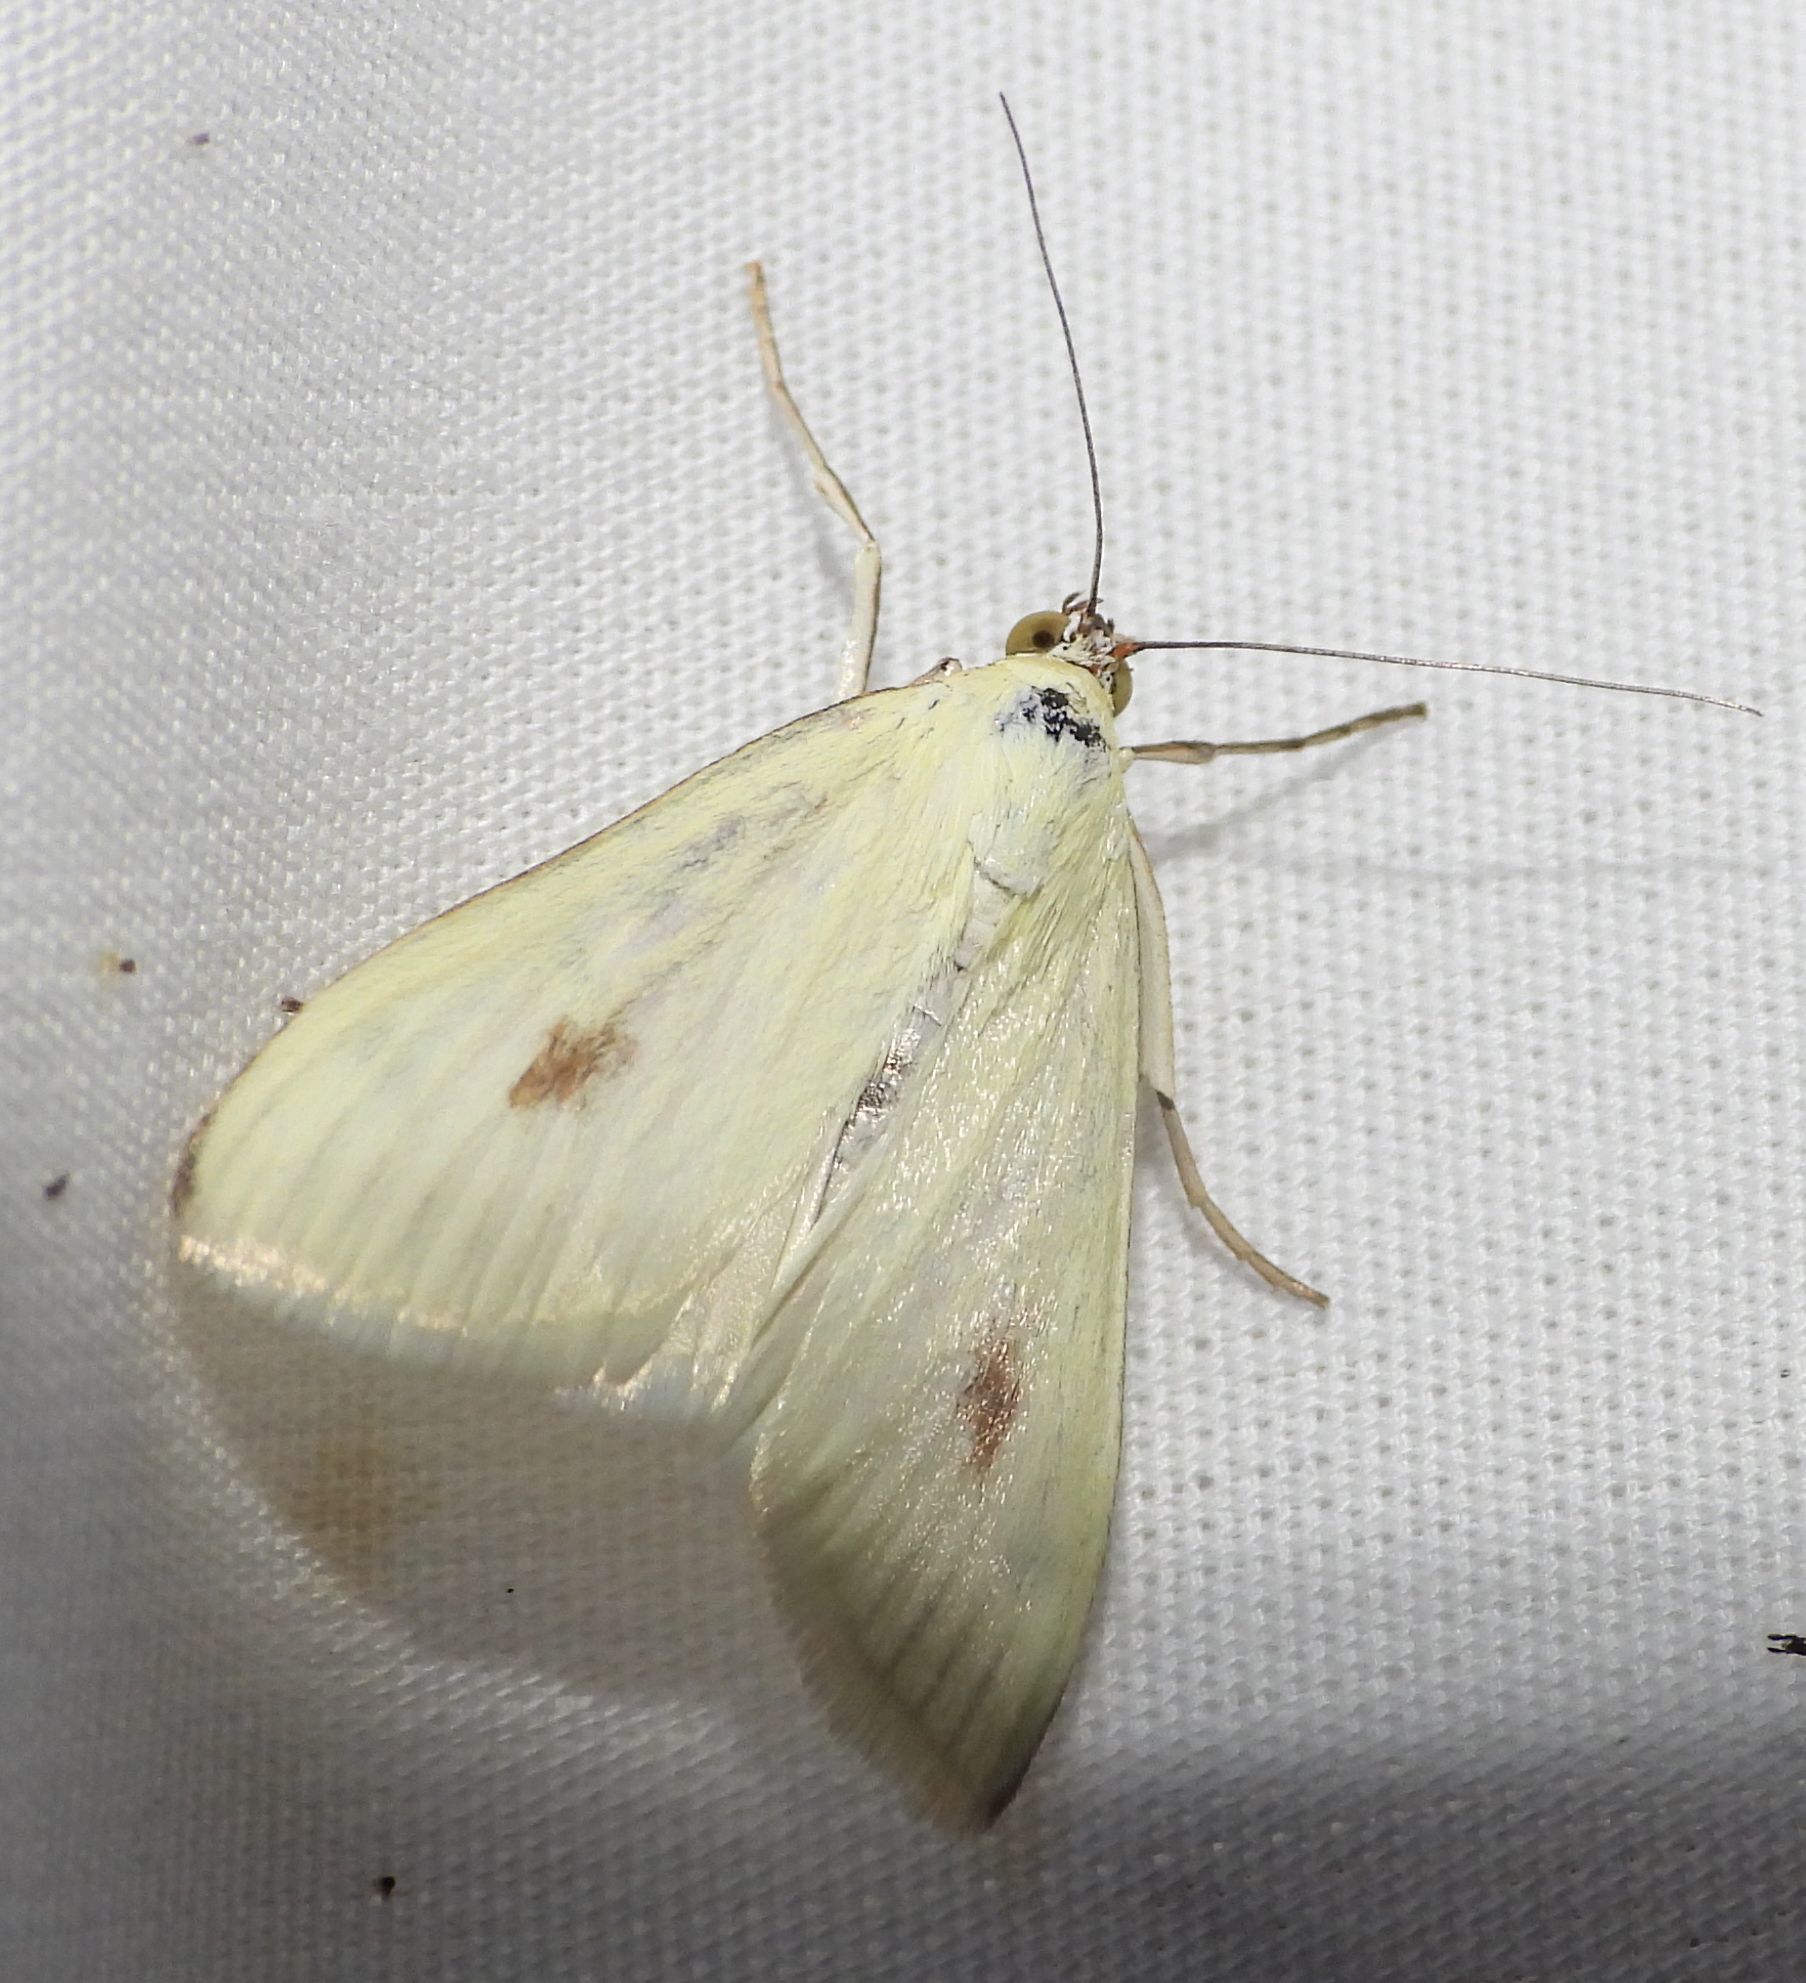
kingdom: Animalia
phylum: Arthropoda
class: Insecta
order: Lepidoptera
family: Crambidae
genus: Sitochroa
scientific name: Sitochroa palealis
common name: Greenish-yellow sitochroa moth
